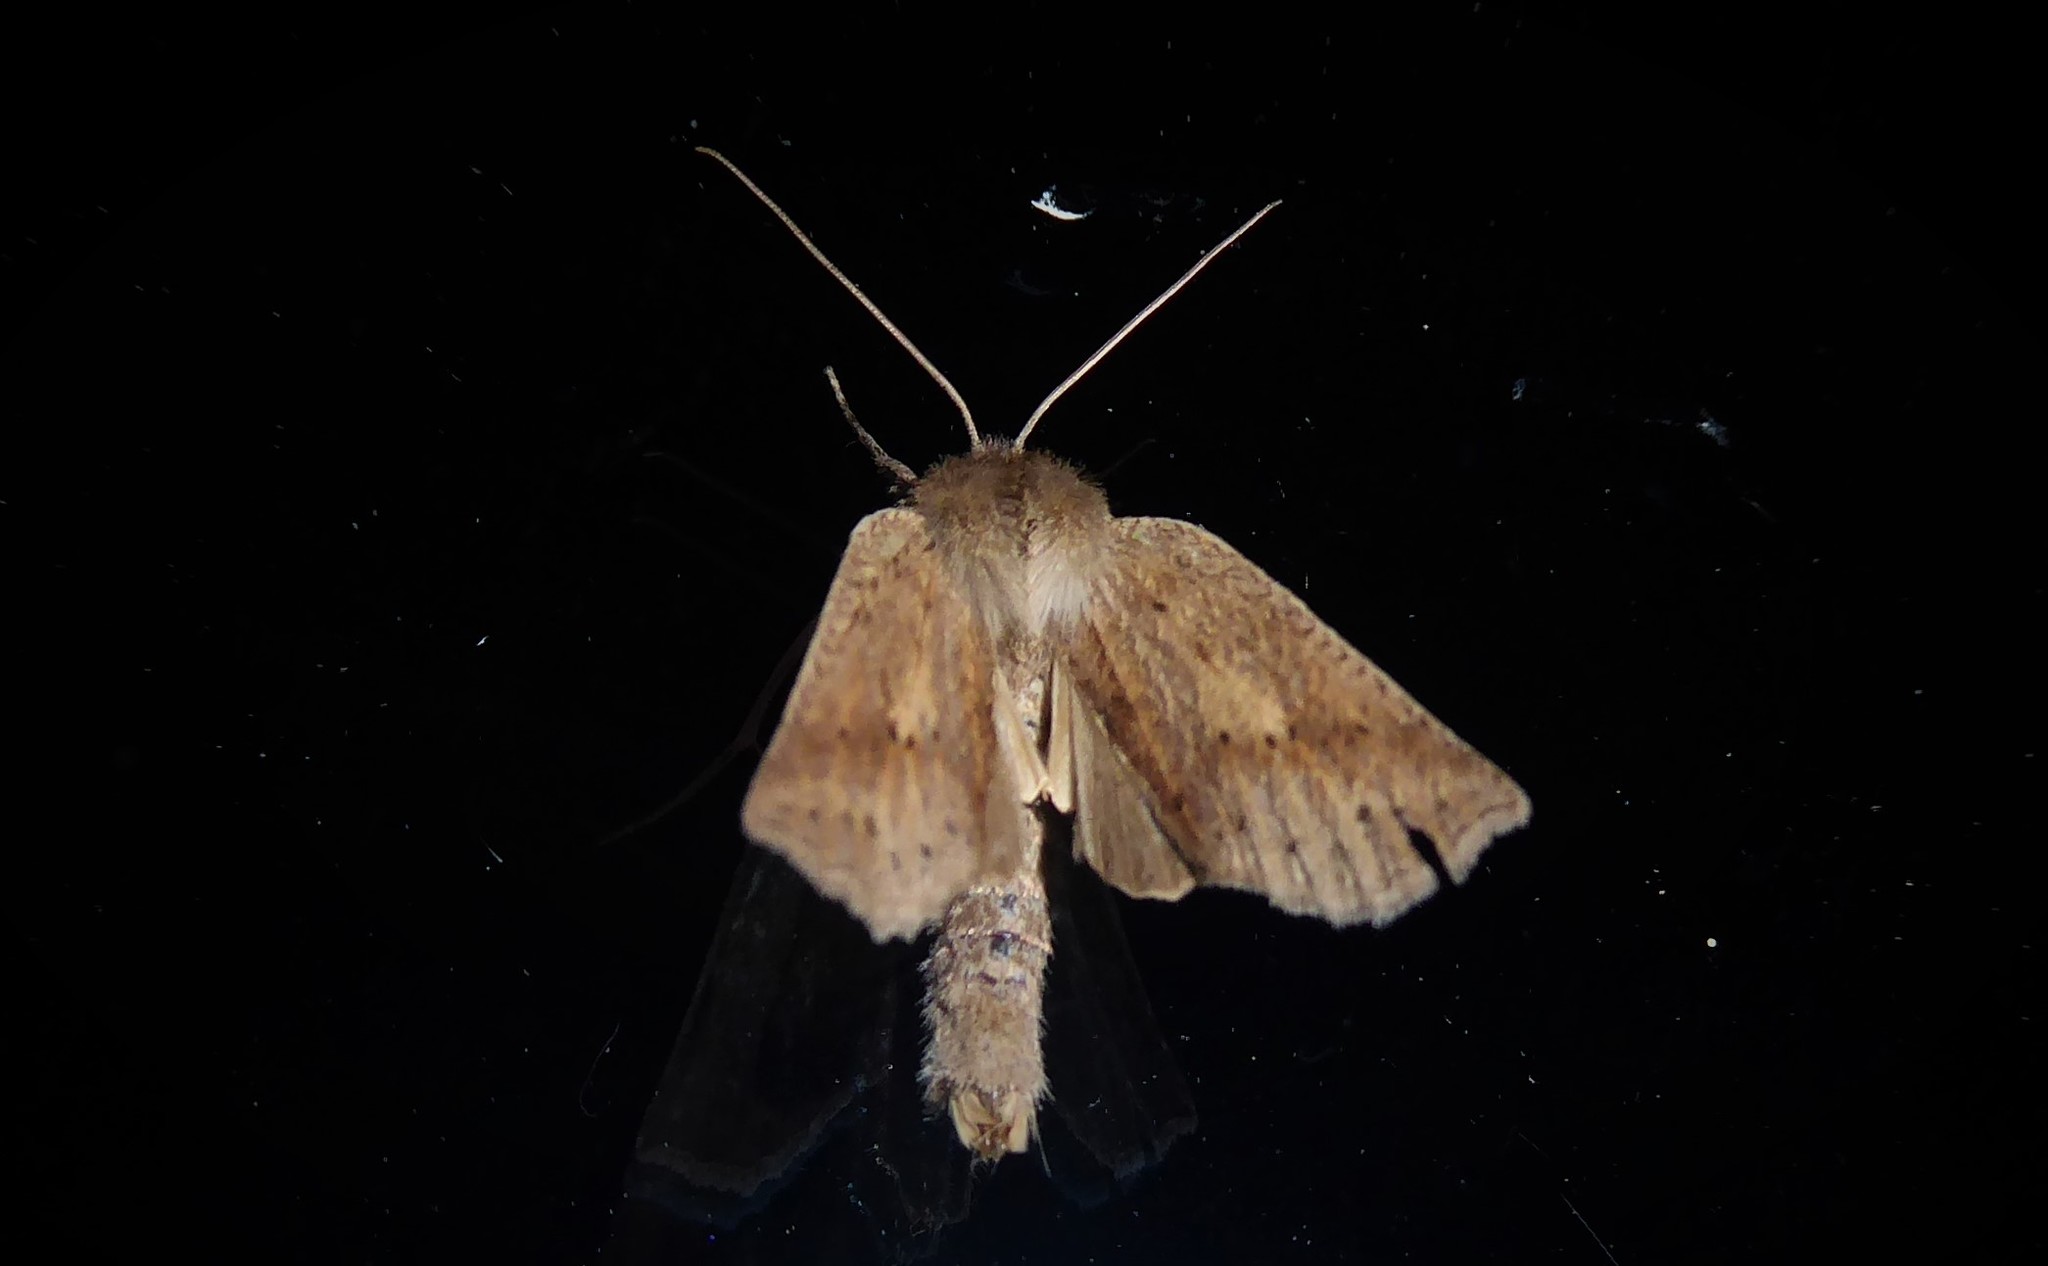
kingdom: Animalia
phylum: Arthropoda
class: Insecta
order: Lepidoptera
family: Geometridae
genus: Declana
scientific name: Declana leptomera
